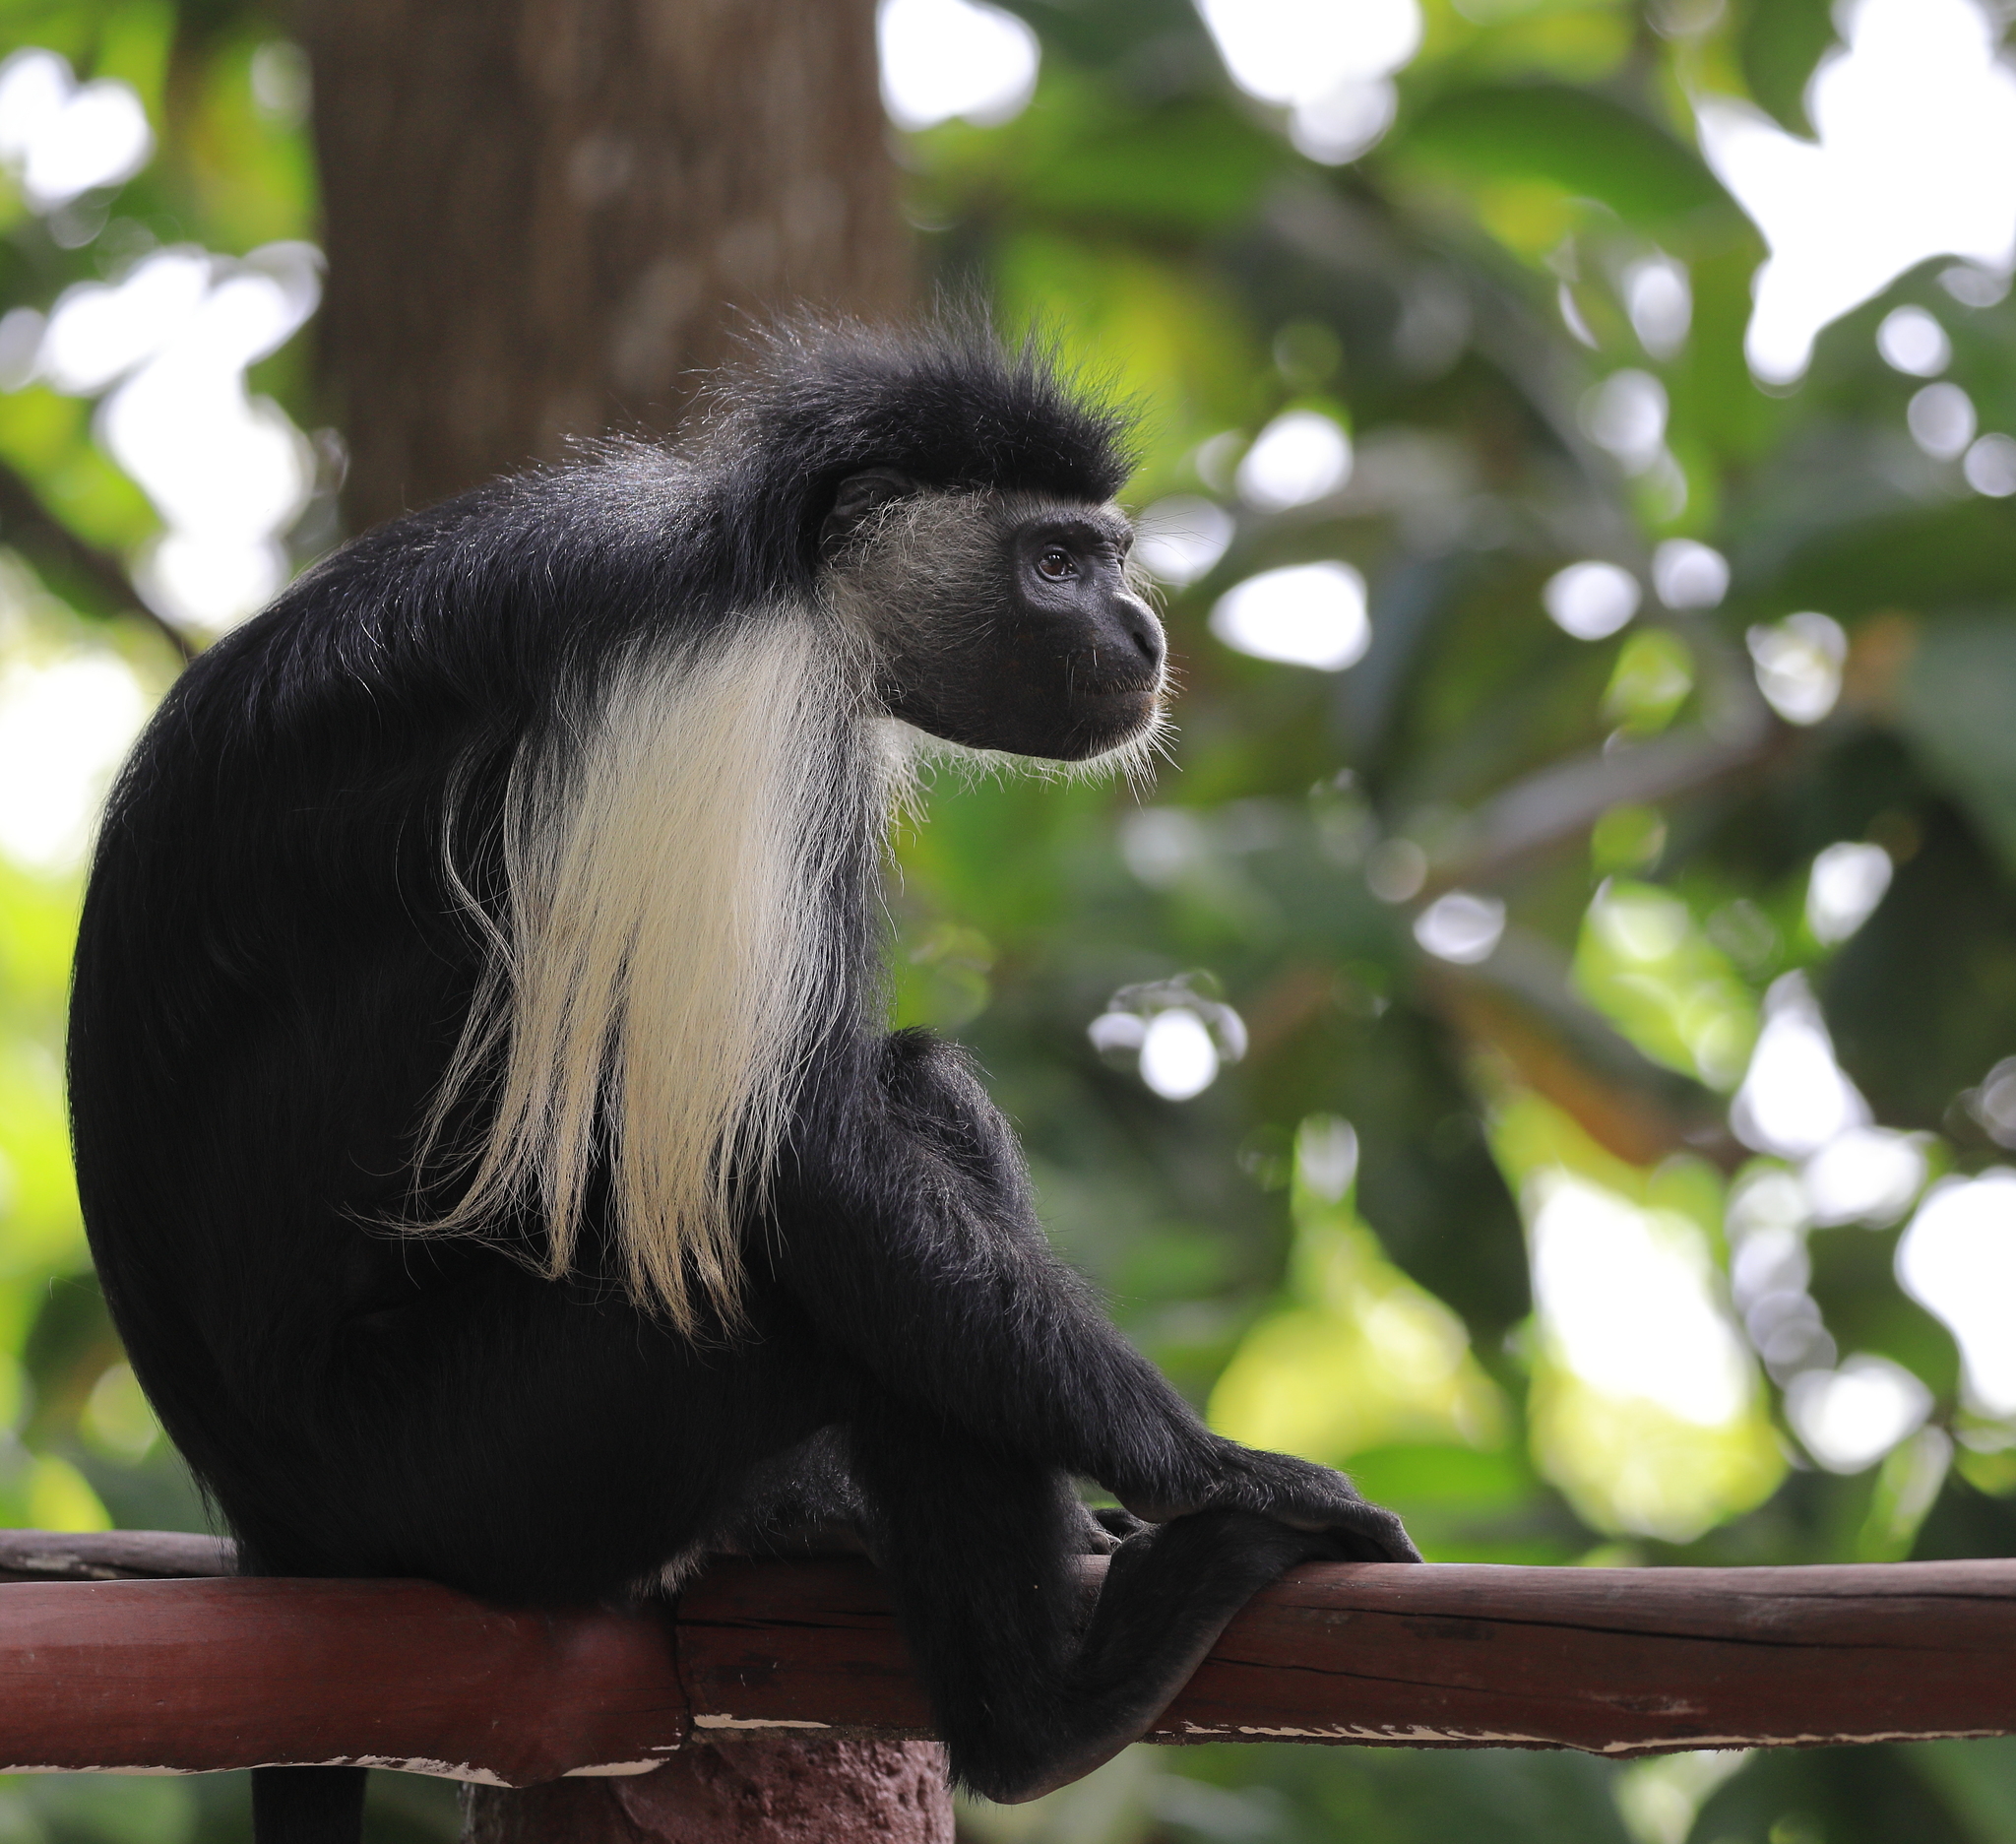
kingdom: Animalia
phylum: Chordata
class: Mammalia
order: Primates
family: Cercopithecidae
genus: Colobus
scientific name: Colobus angolensis
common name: Angola colobus
